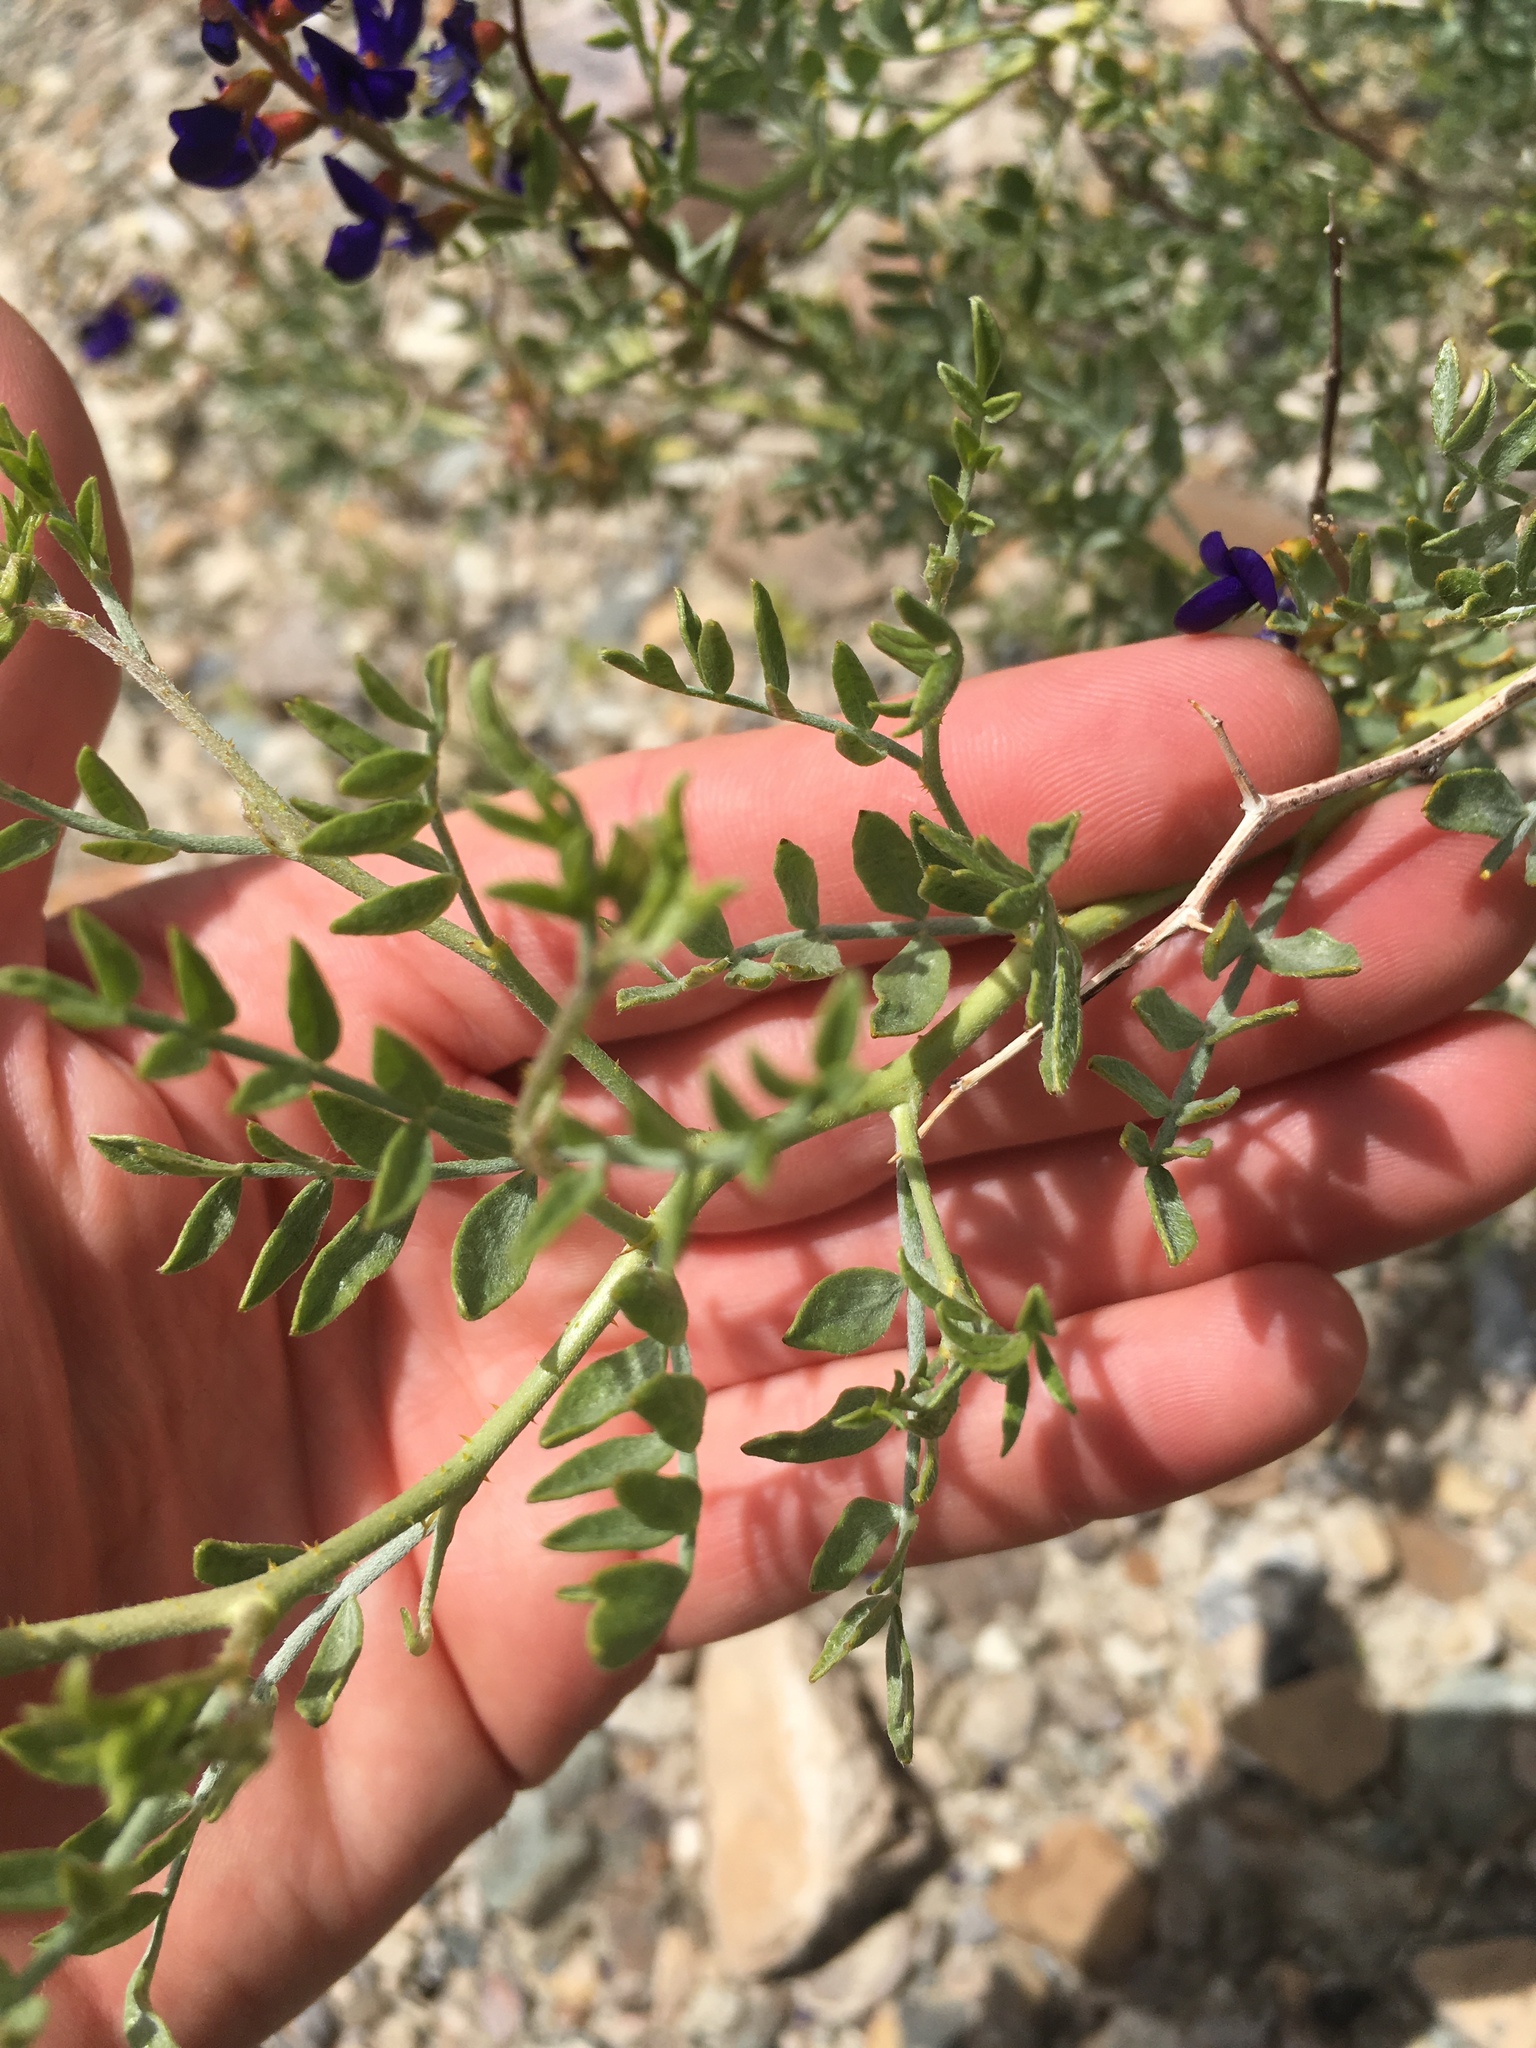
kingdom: Plantae
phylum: Tracheophyta
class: Magnoliopsida
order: Fabales
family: Fabaceae
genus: Psorothamnus
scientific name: Psorothamnus arborescens
